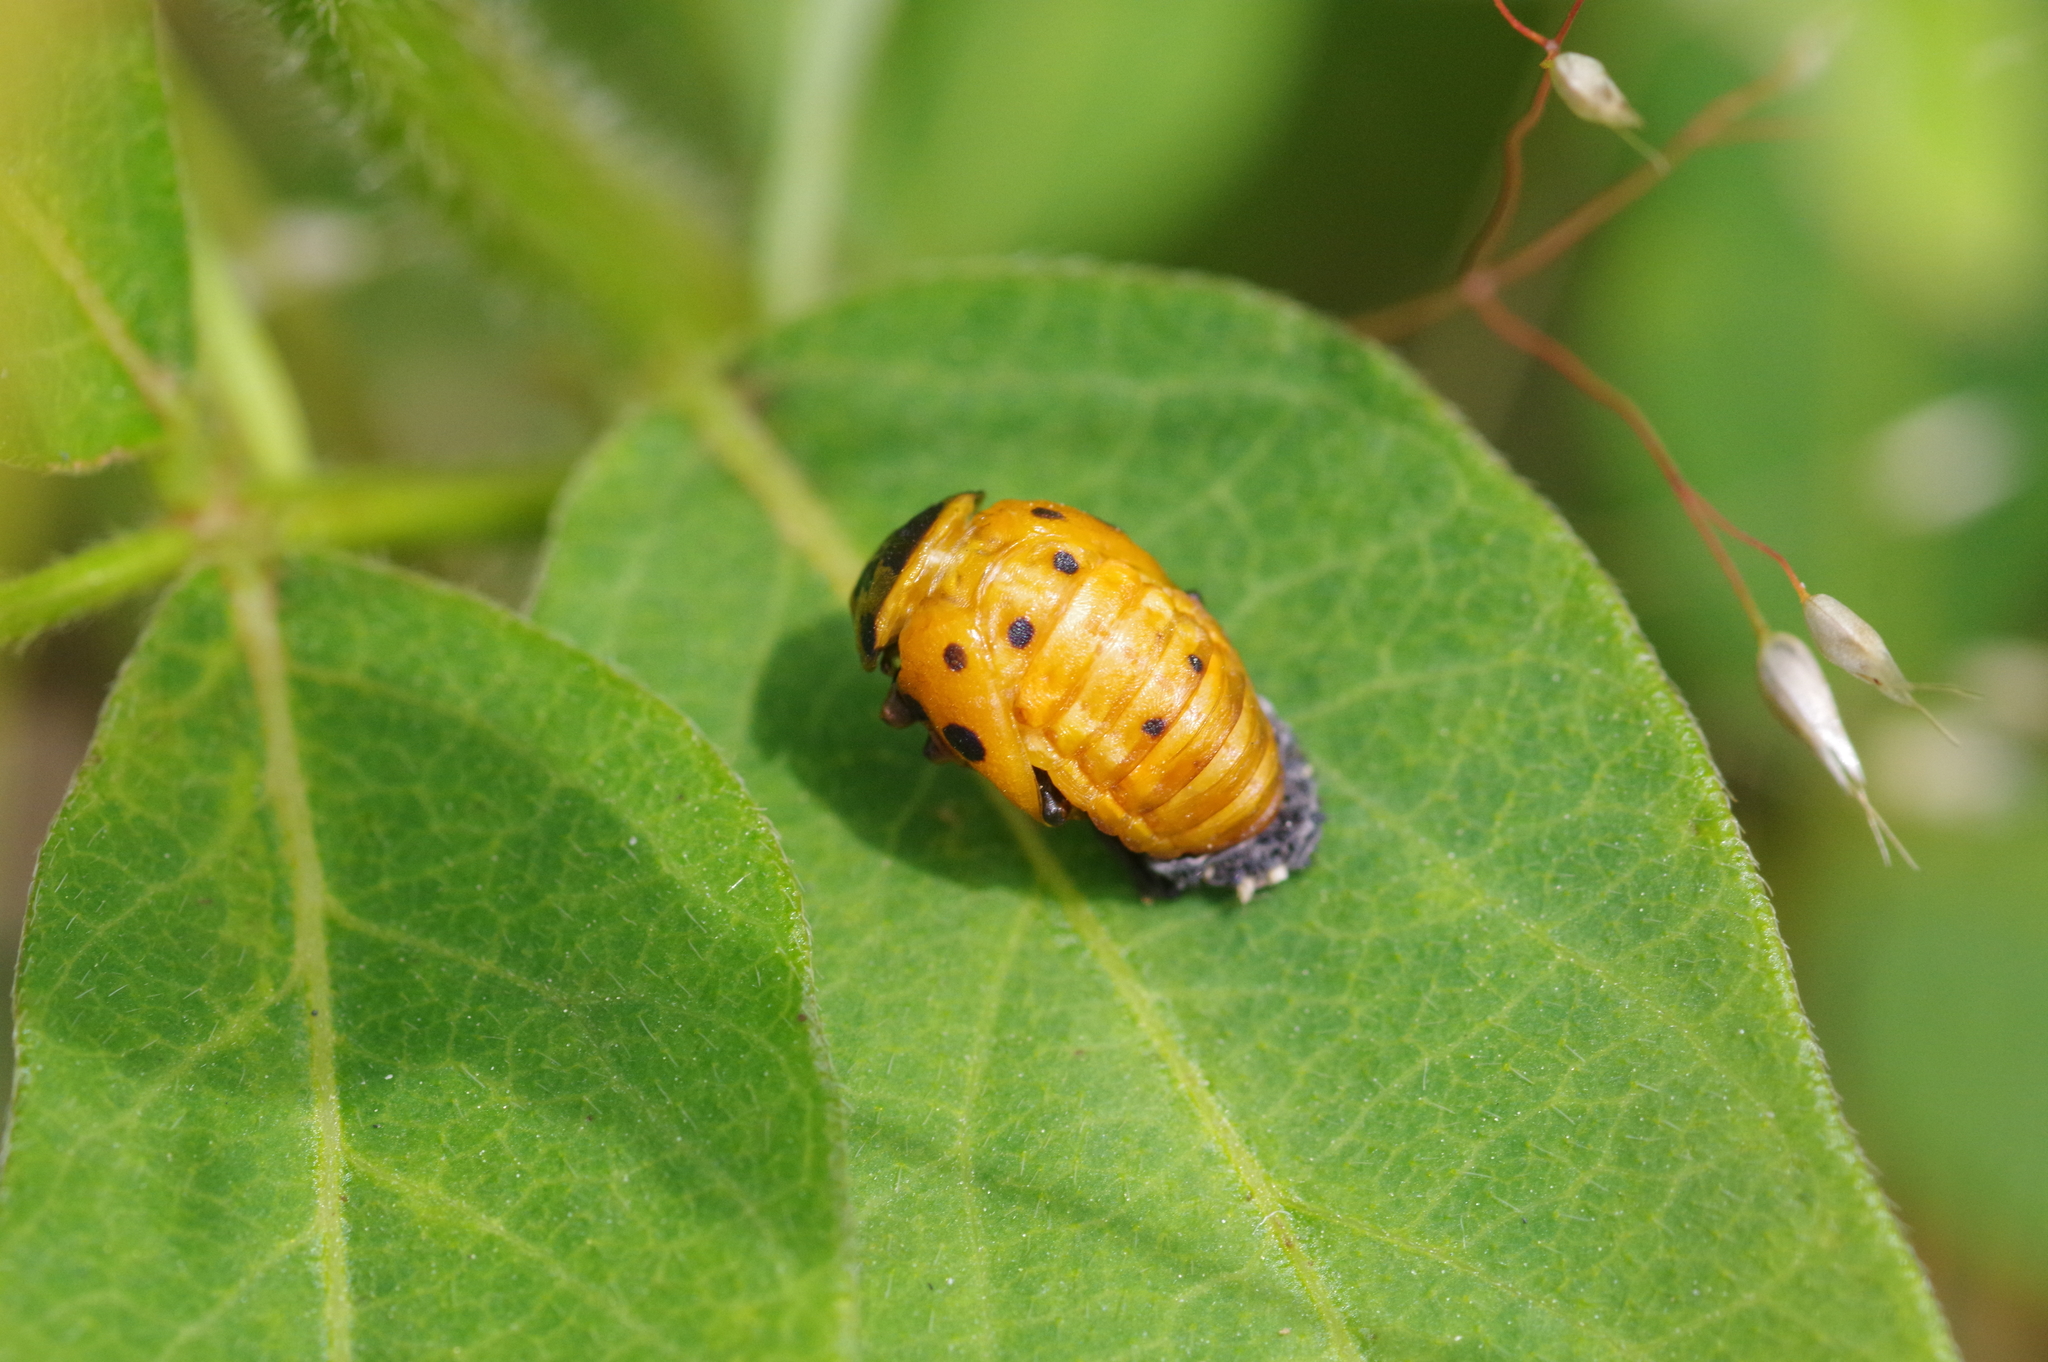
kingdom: Animalia
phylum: Arthropoda
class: Insecta
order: Coleoptera
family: Coccinellidae
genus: Coccinella
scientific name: Coccinella septempunctata
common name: Sevenspotted lady beetle
